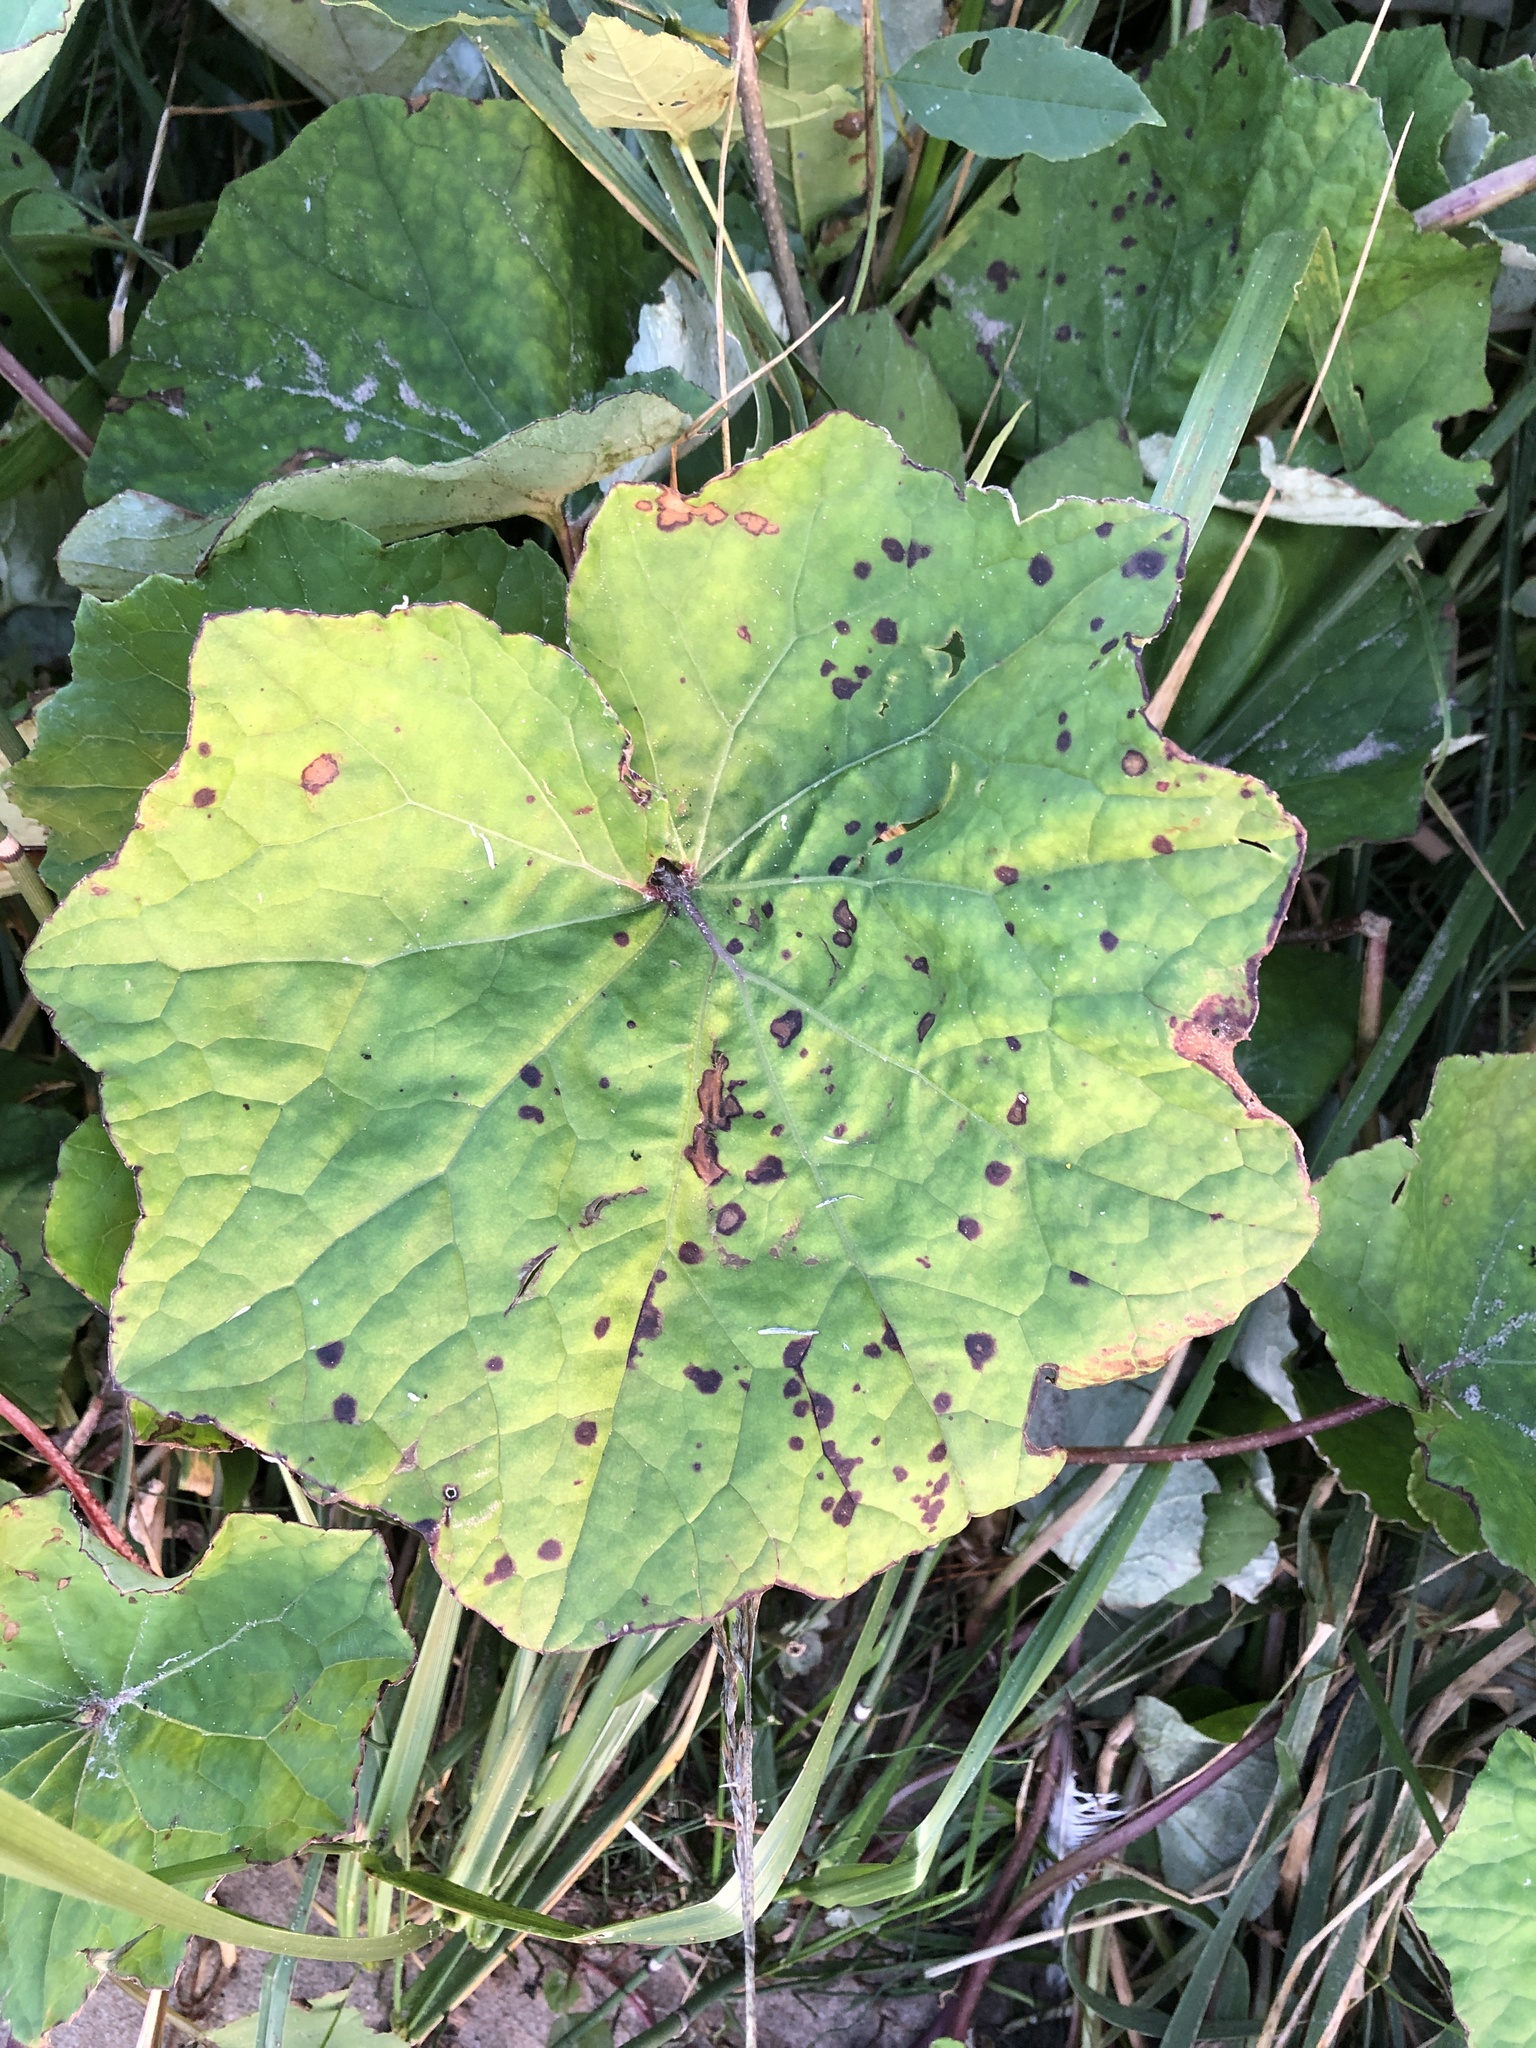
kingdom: Plantae
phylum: Tracheophyta
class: Magnoliopsida
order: Asterales
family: Asteraceae
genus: Tussilago
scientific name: Tussilago farfara
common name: Coltsfoot
